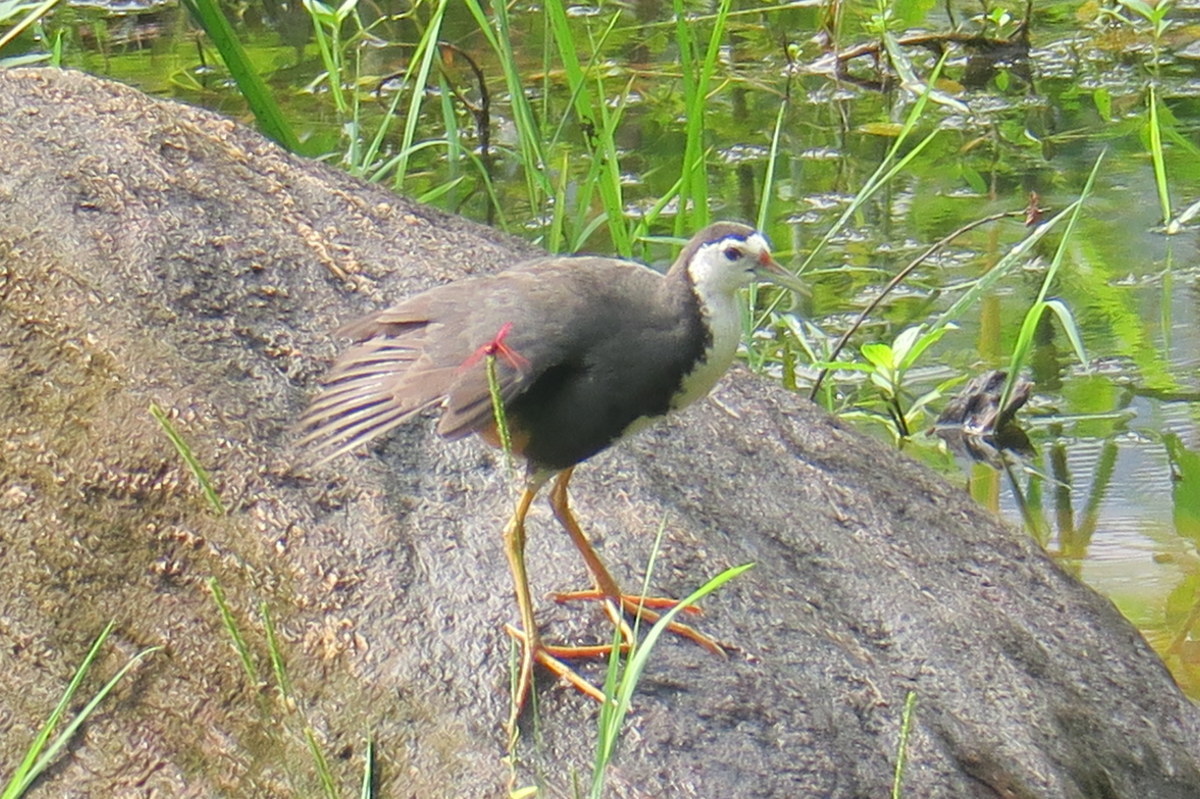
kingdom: Animalia
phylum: Chordata
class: Aves
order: Gruiformes
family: Rallidae
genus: Amaurornis
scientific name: Amaurornis phoenicurus
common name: White-breasted waterhen
